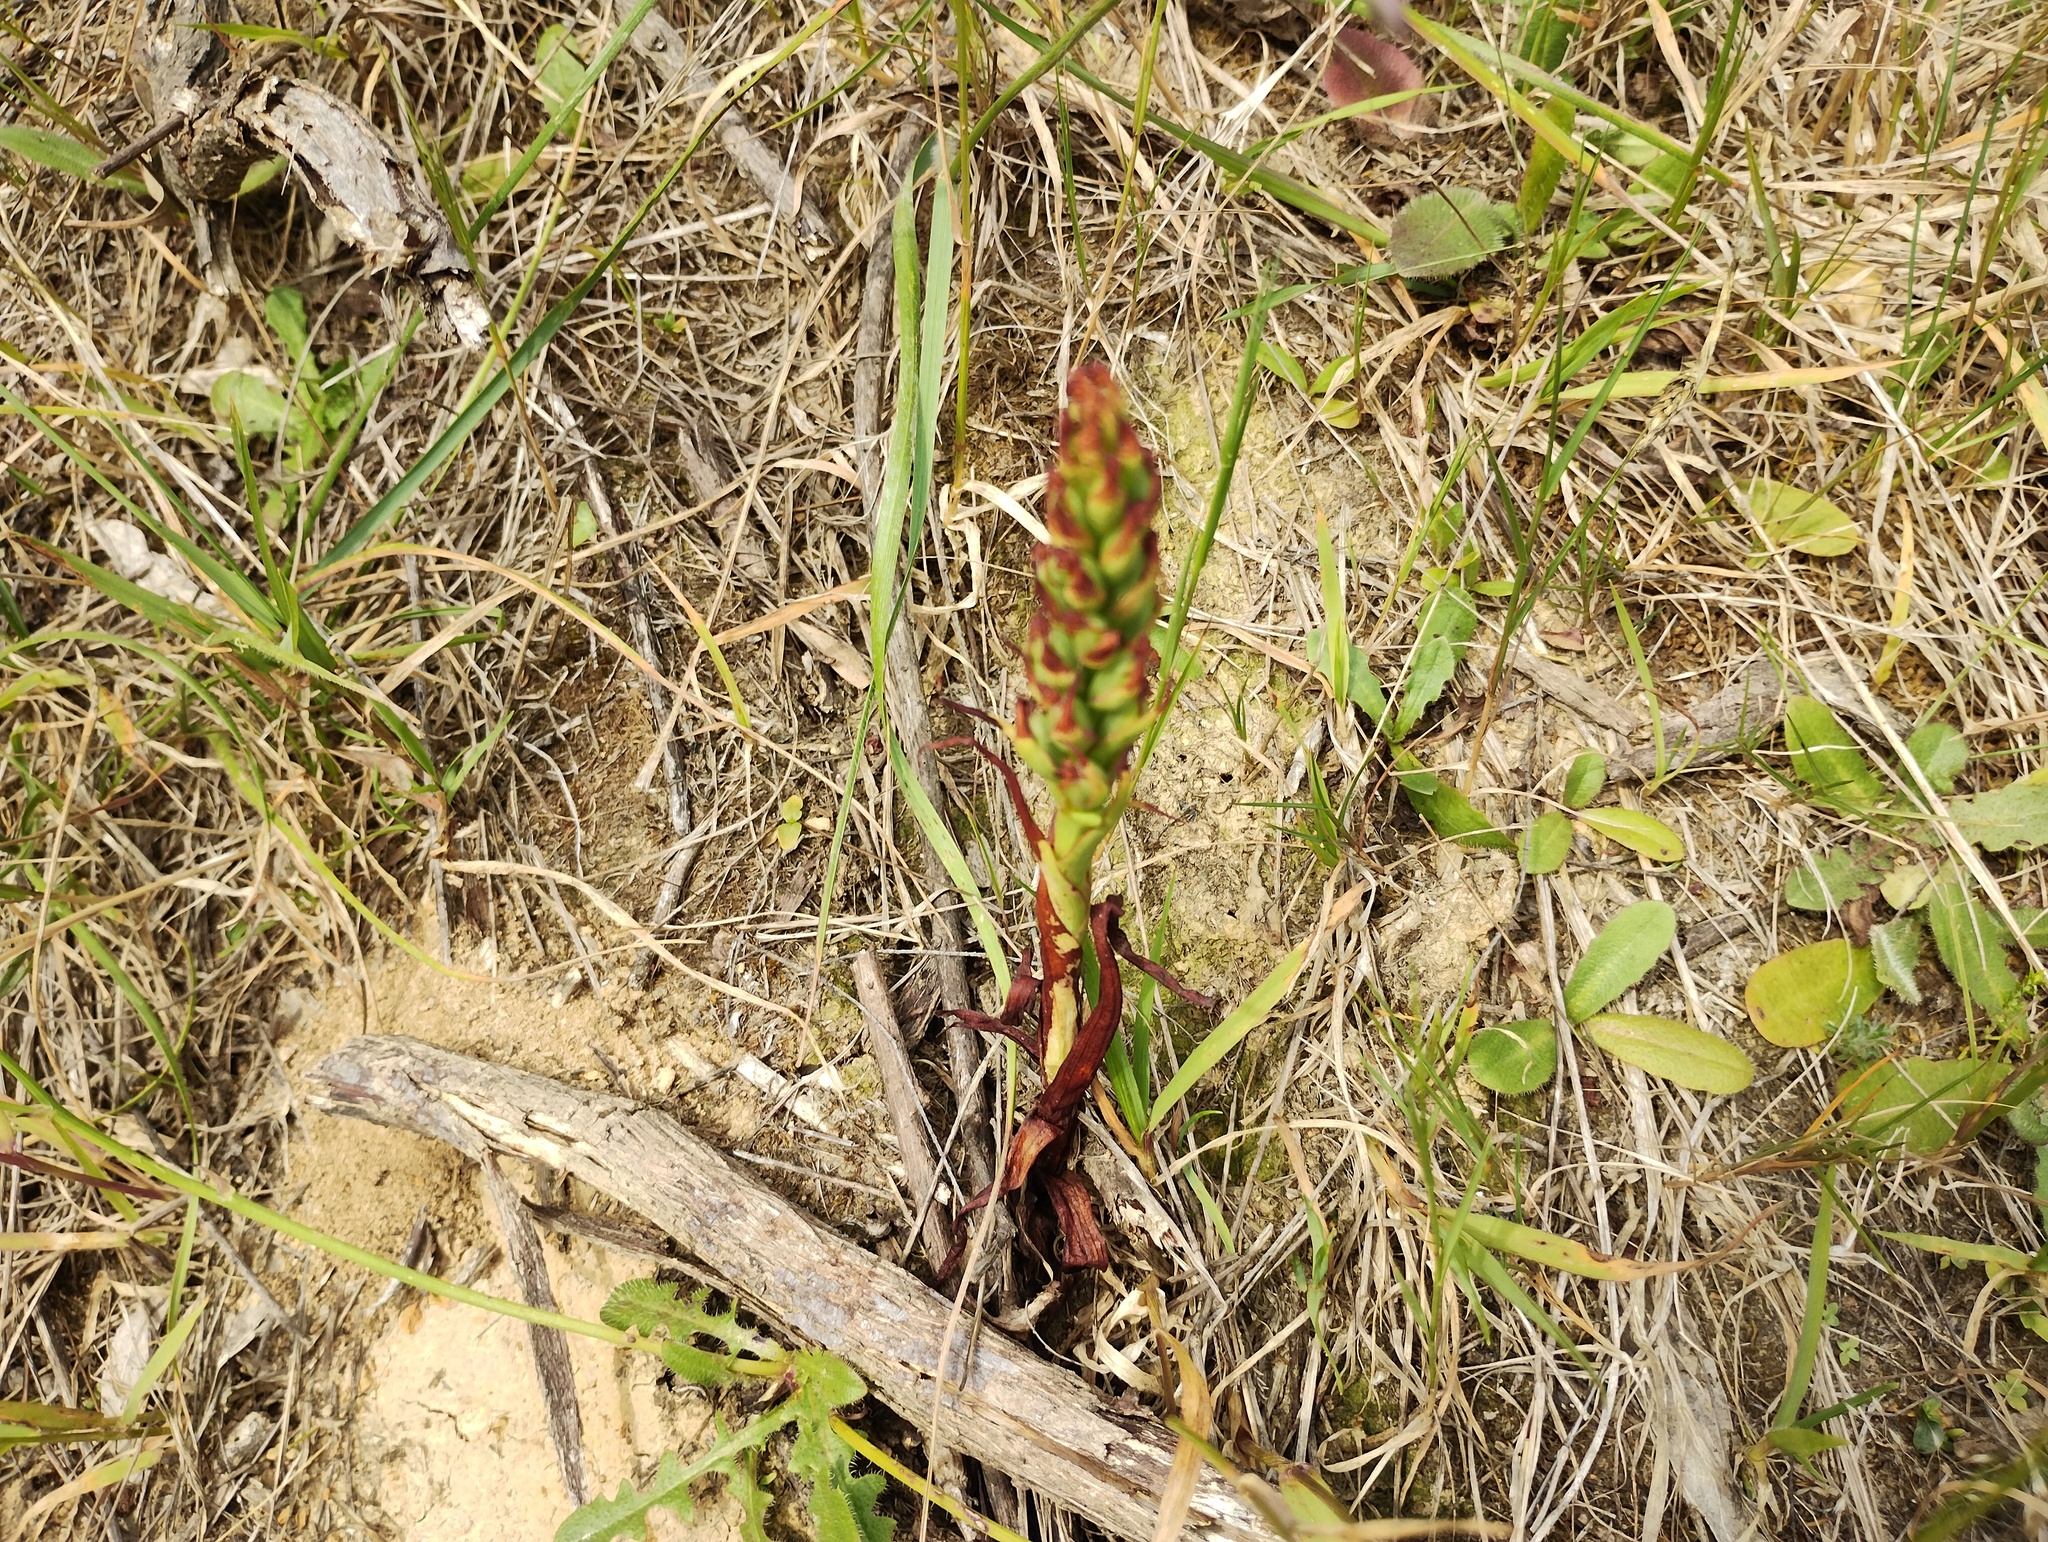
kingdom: Plantae
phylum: Tracheophyta
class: Liliopsida
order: Asparagales
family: Orchidaceae
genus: Disa
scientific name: Disa bracteata
